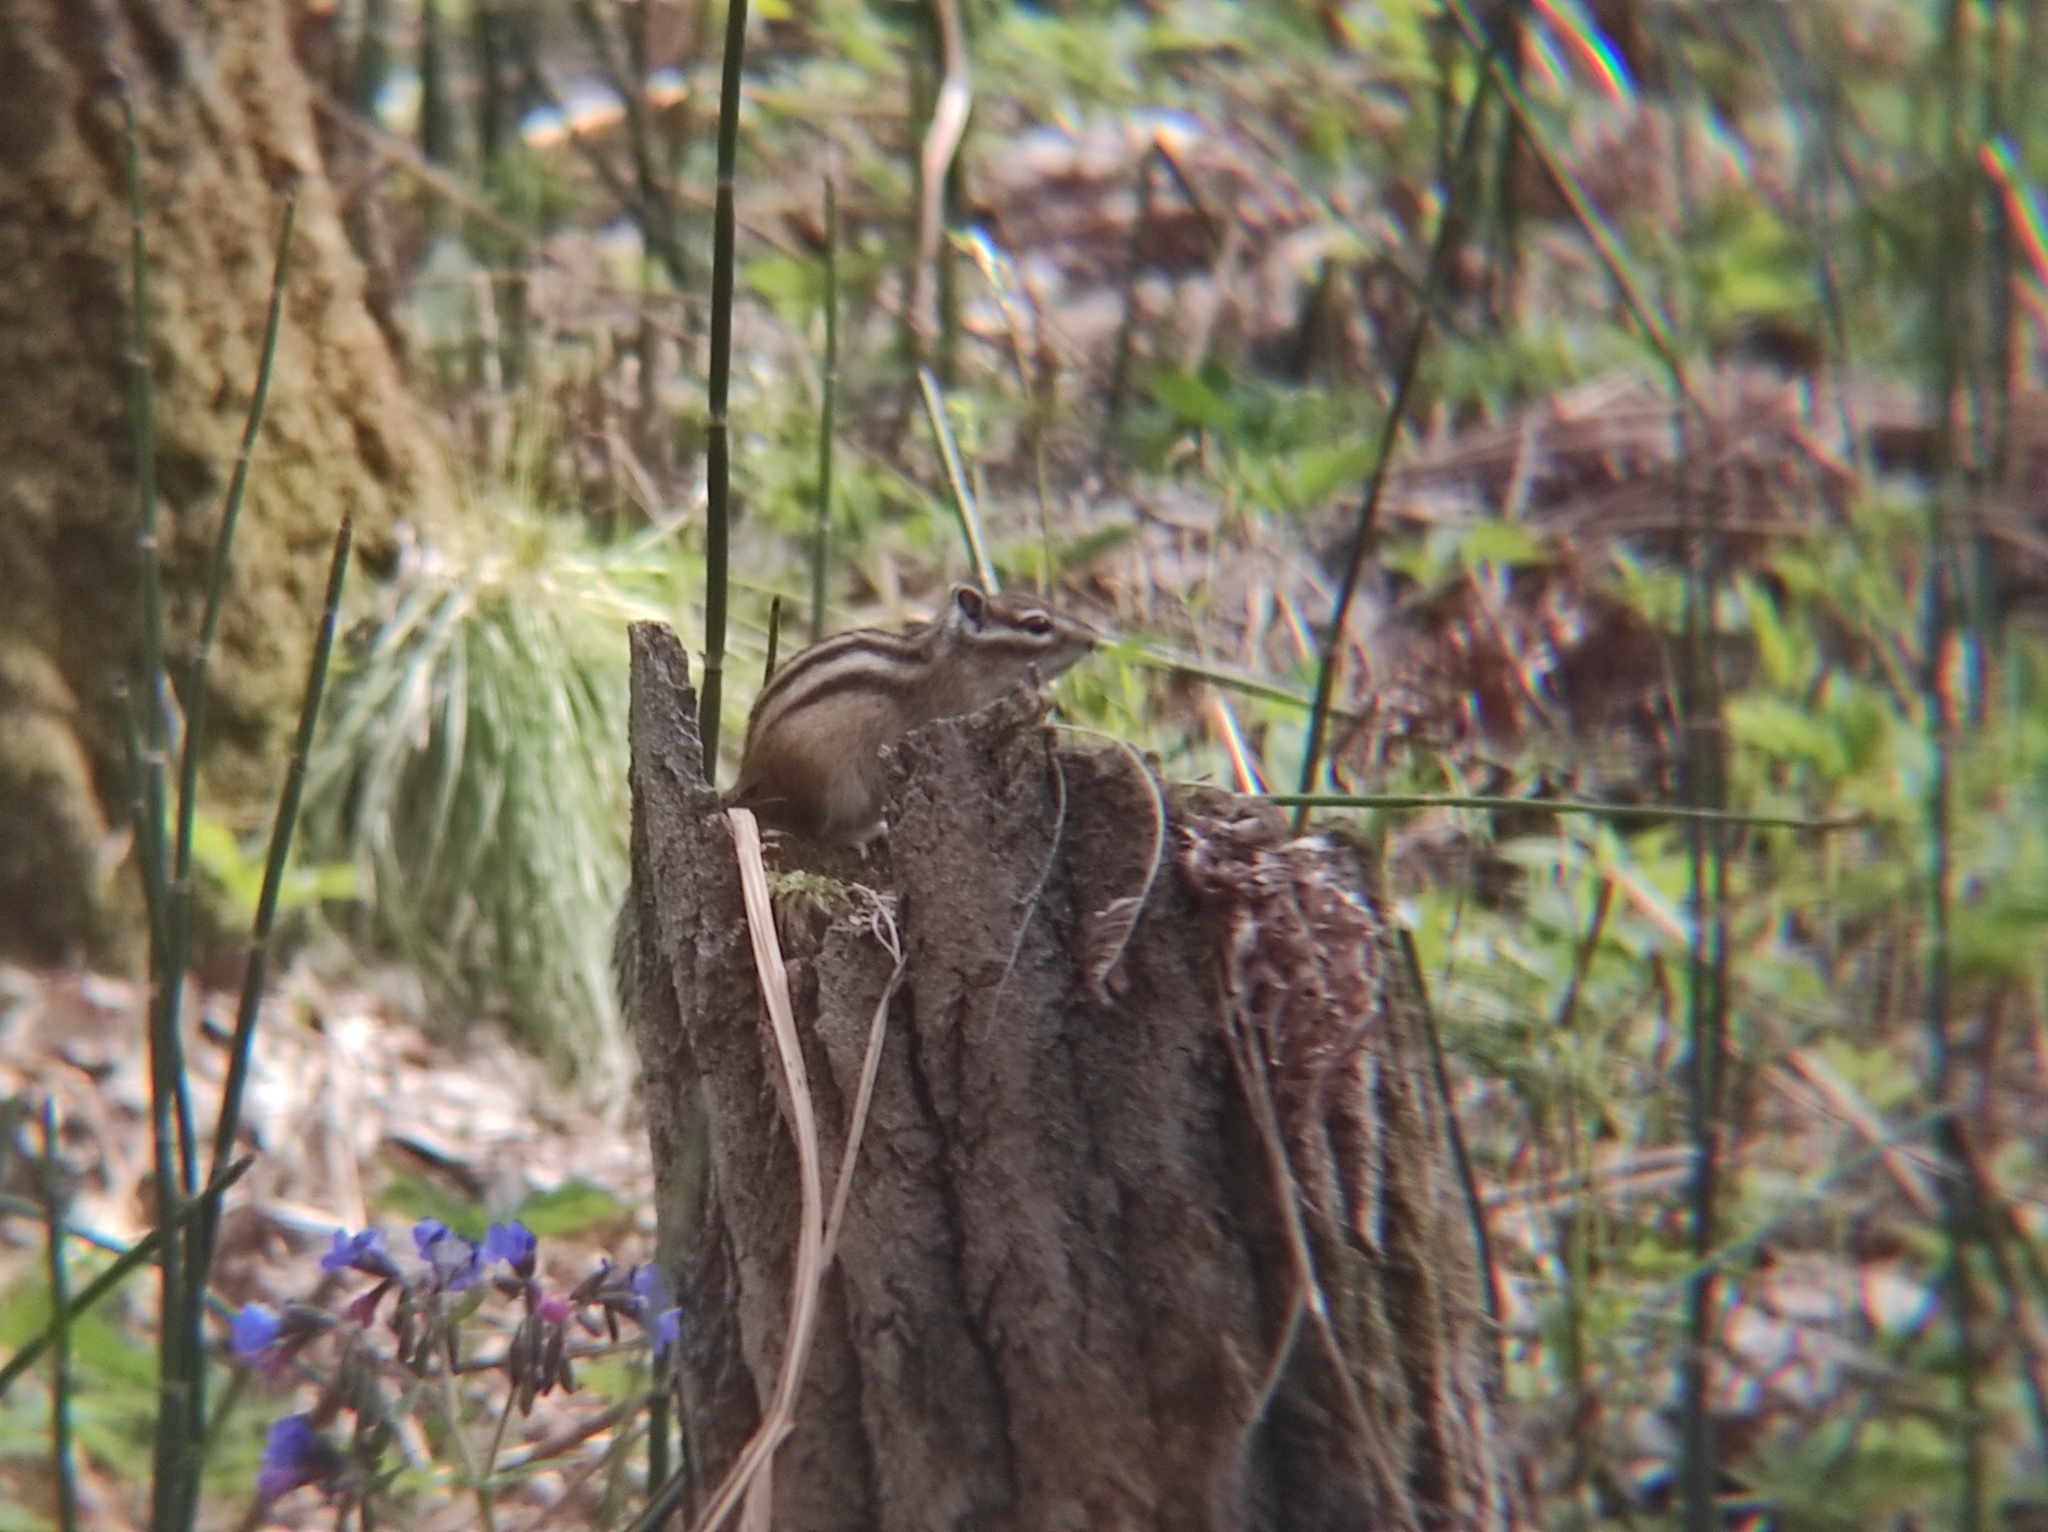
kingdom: Animalia
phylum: Chordata
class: Mammalia
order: Rodentia
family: Sciuridae
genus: Tamias
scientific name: Tamias sibiricus
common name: Siberian chipmunk
